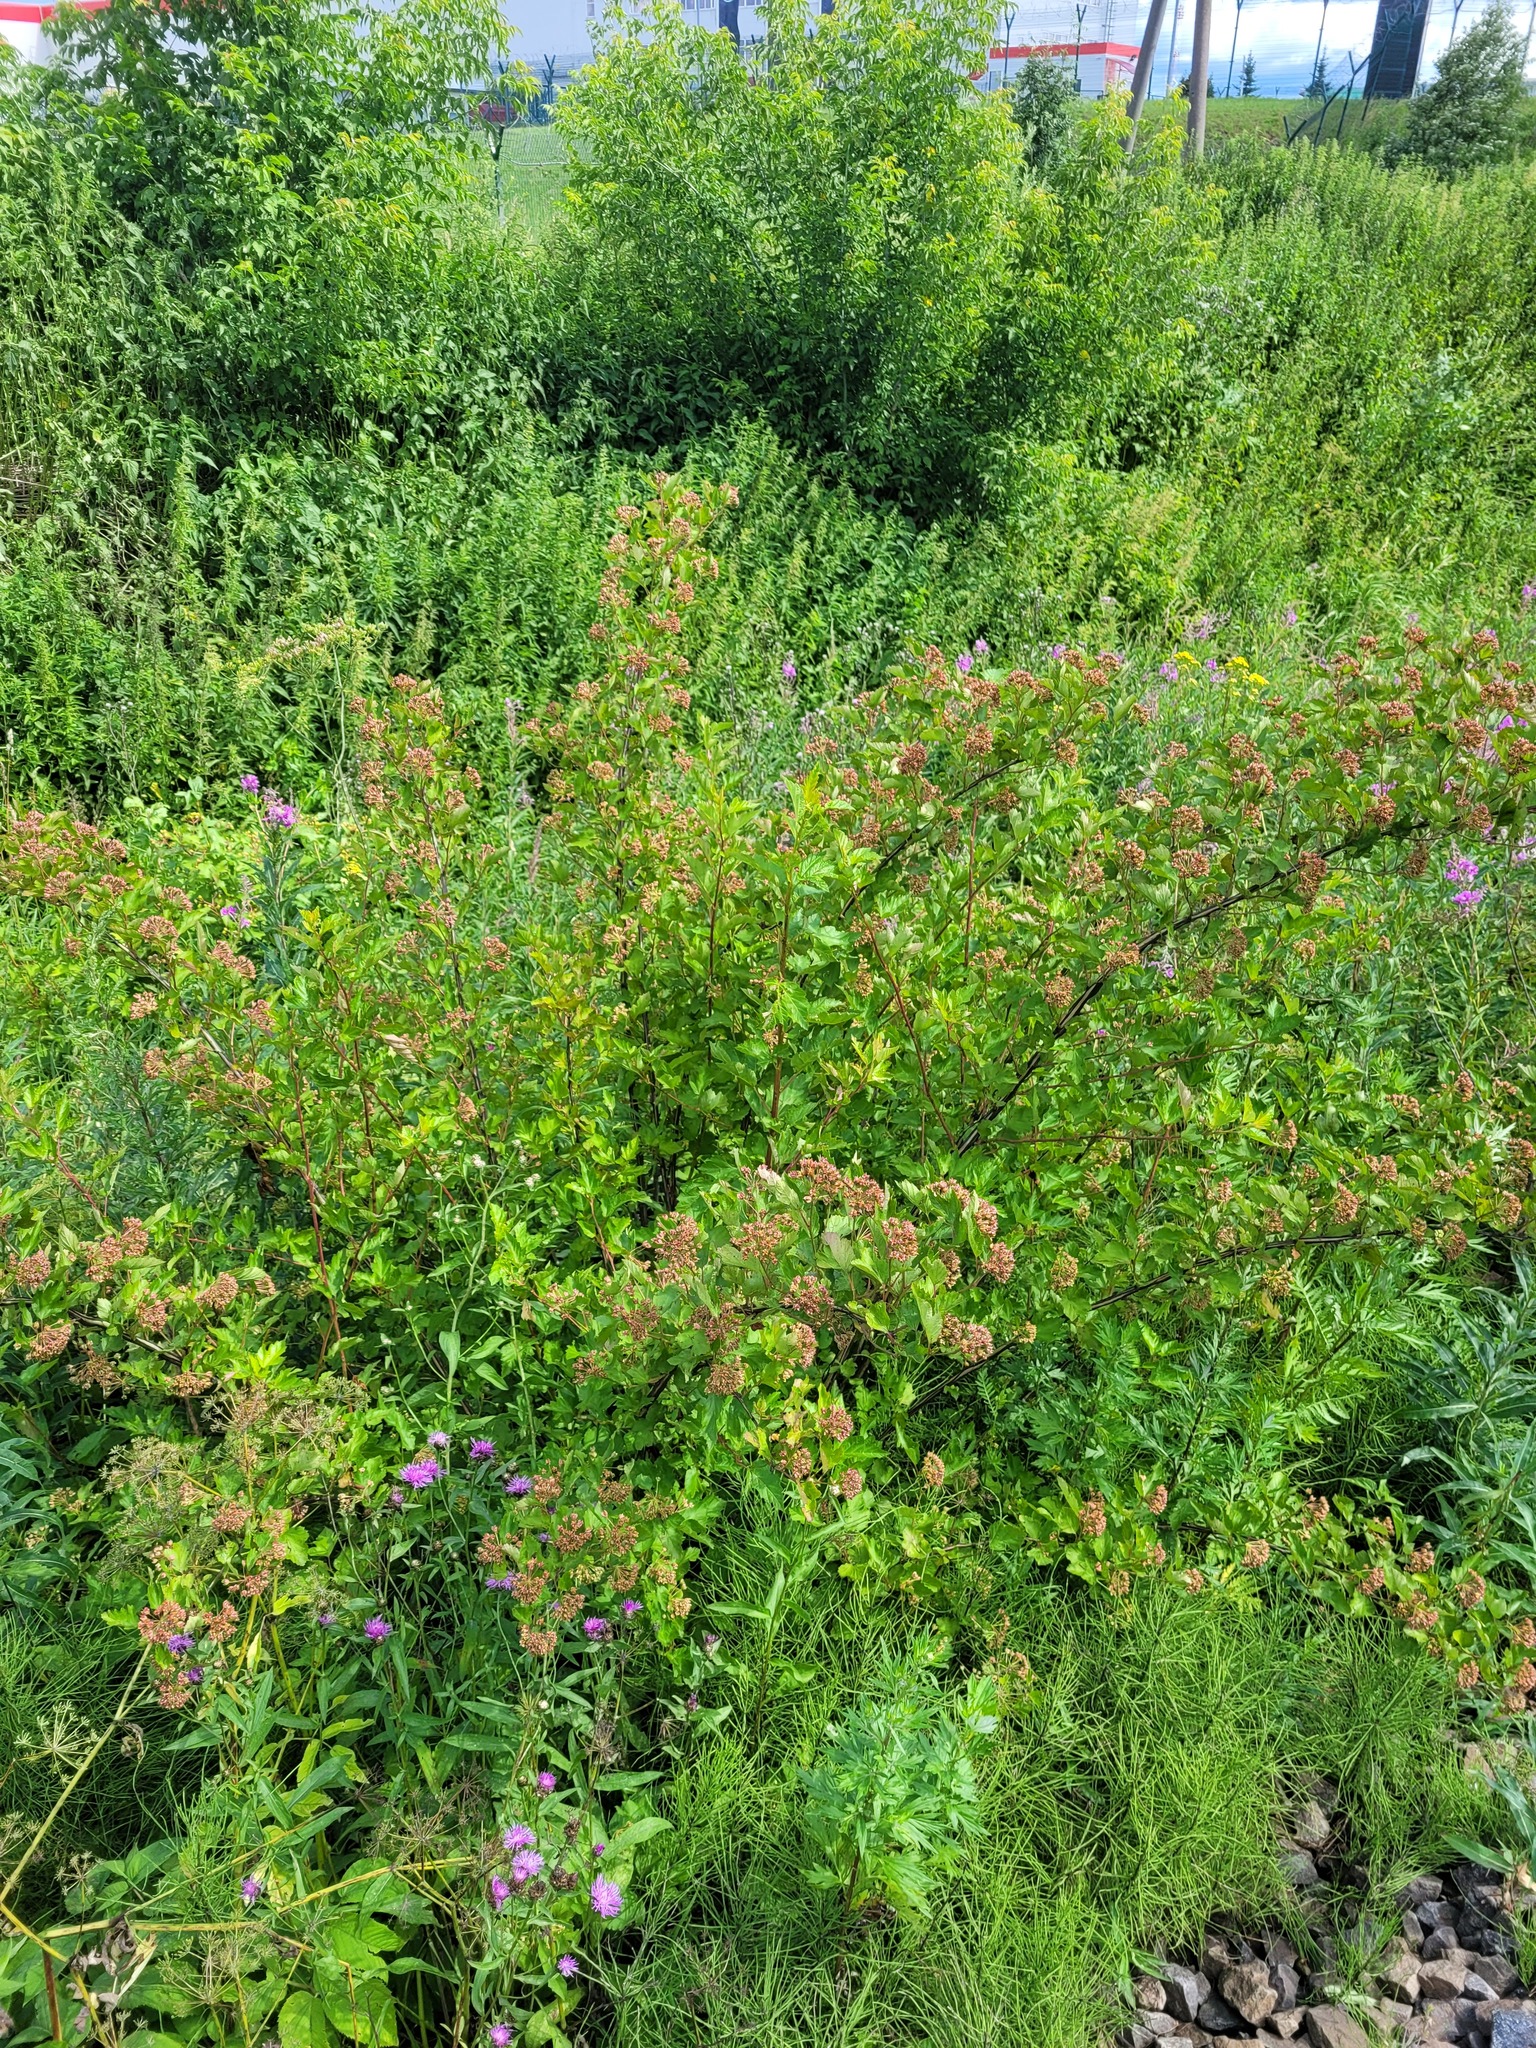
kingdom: Plantae
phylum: Tracheophyta
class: Magnoliopsida
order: Rosales
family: Rosaceae
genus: Physocarpus
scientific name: Physocarpus opulifolius
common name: Ninebark
